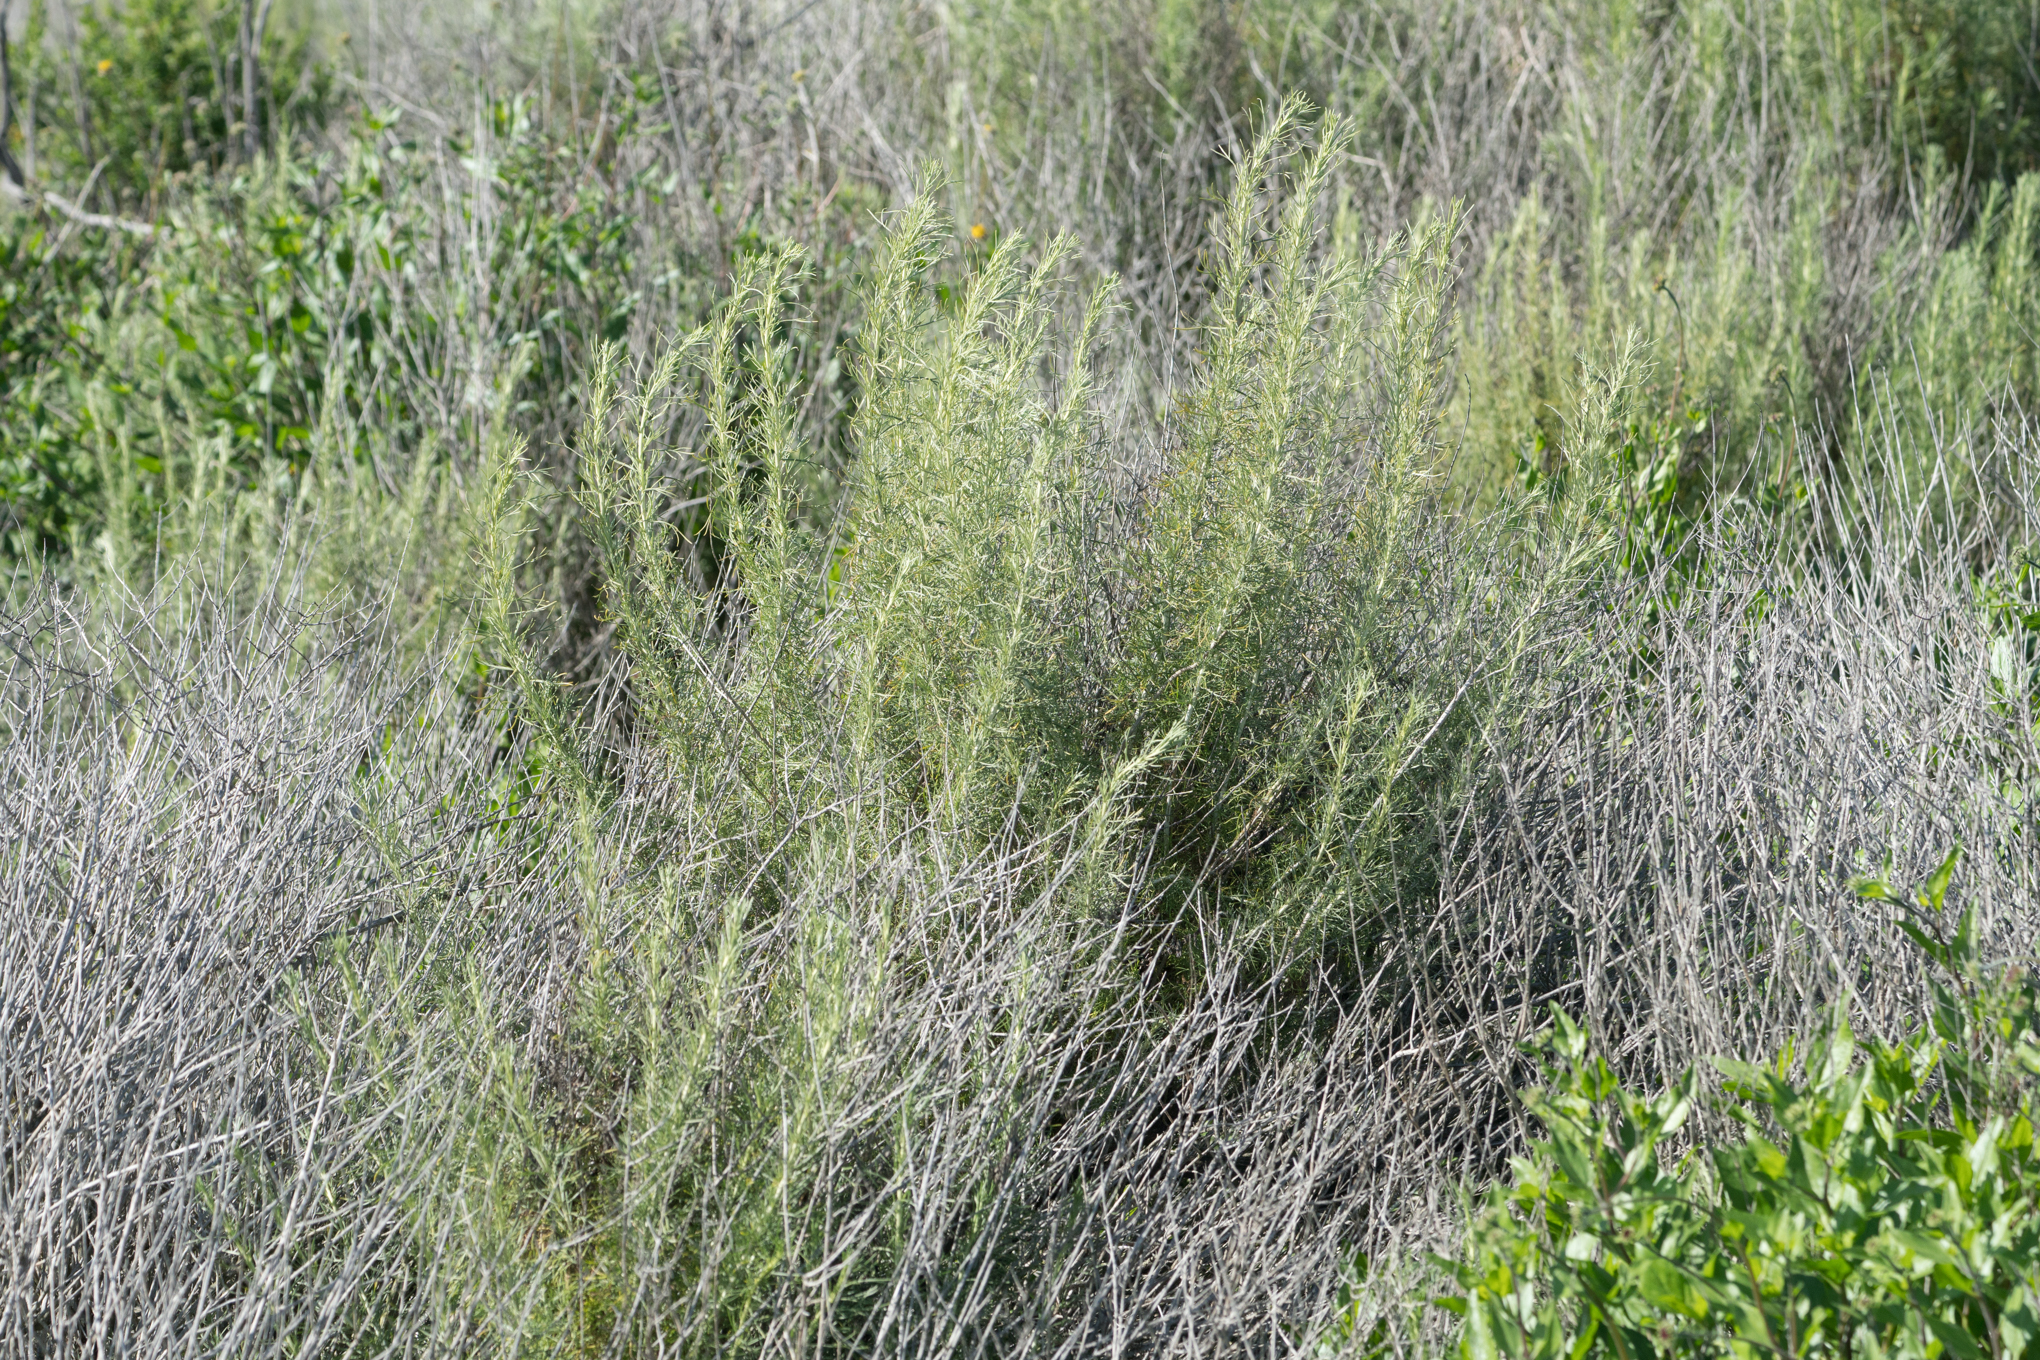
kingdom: Plantae
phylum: Tracheophyta
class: Magnoliopsida
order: Asterales
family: Asteraceae
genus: Artemisia
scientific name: Artemisia californica
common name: California sagebrush
